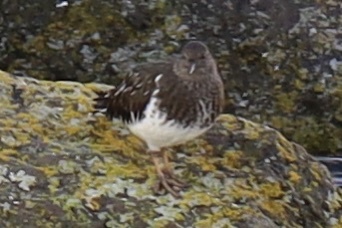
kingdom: Animalia
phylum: Chordata
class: Aves
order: Charadriiformes
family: Scolopacidae
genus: Arenaria
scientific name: Arenaria melanocephala
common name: Black turnstone
